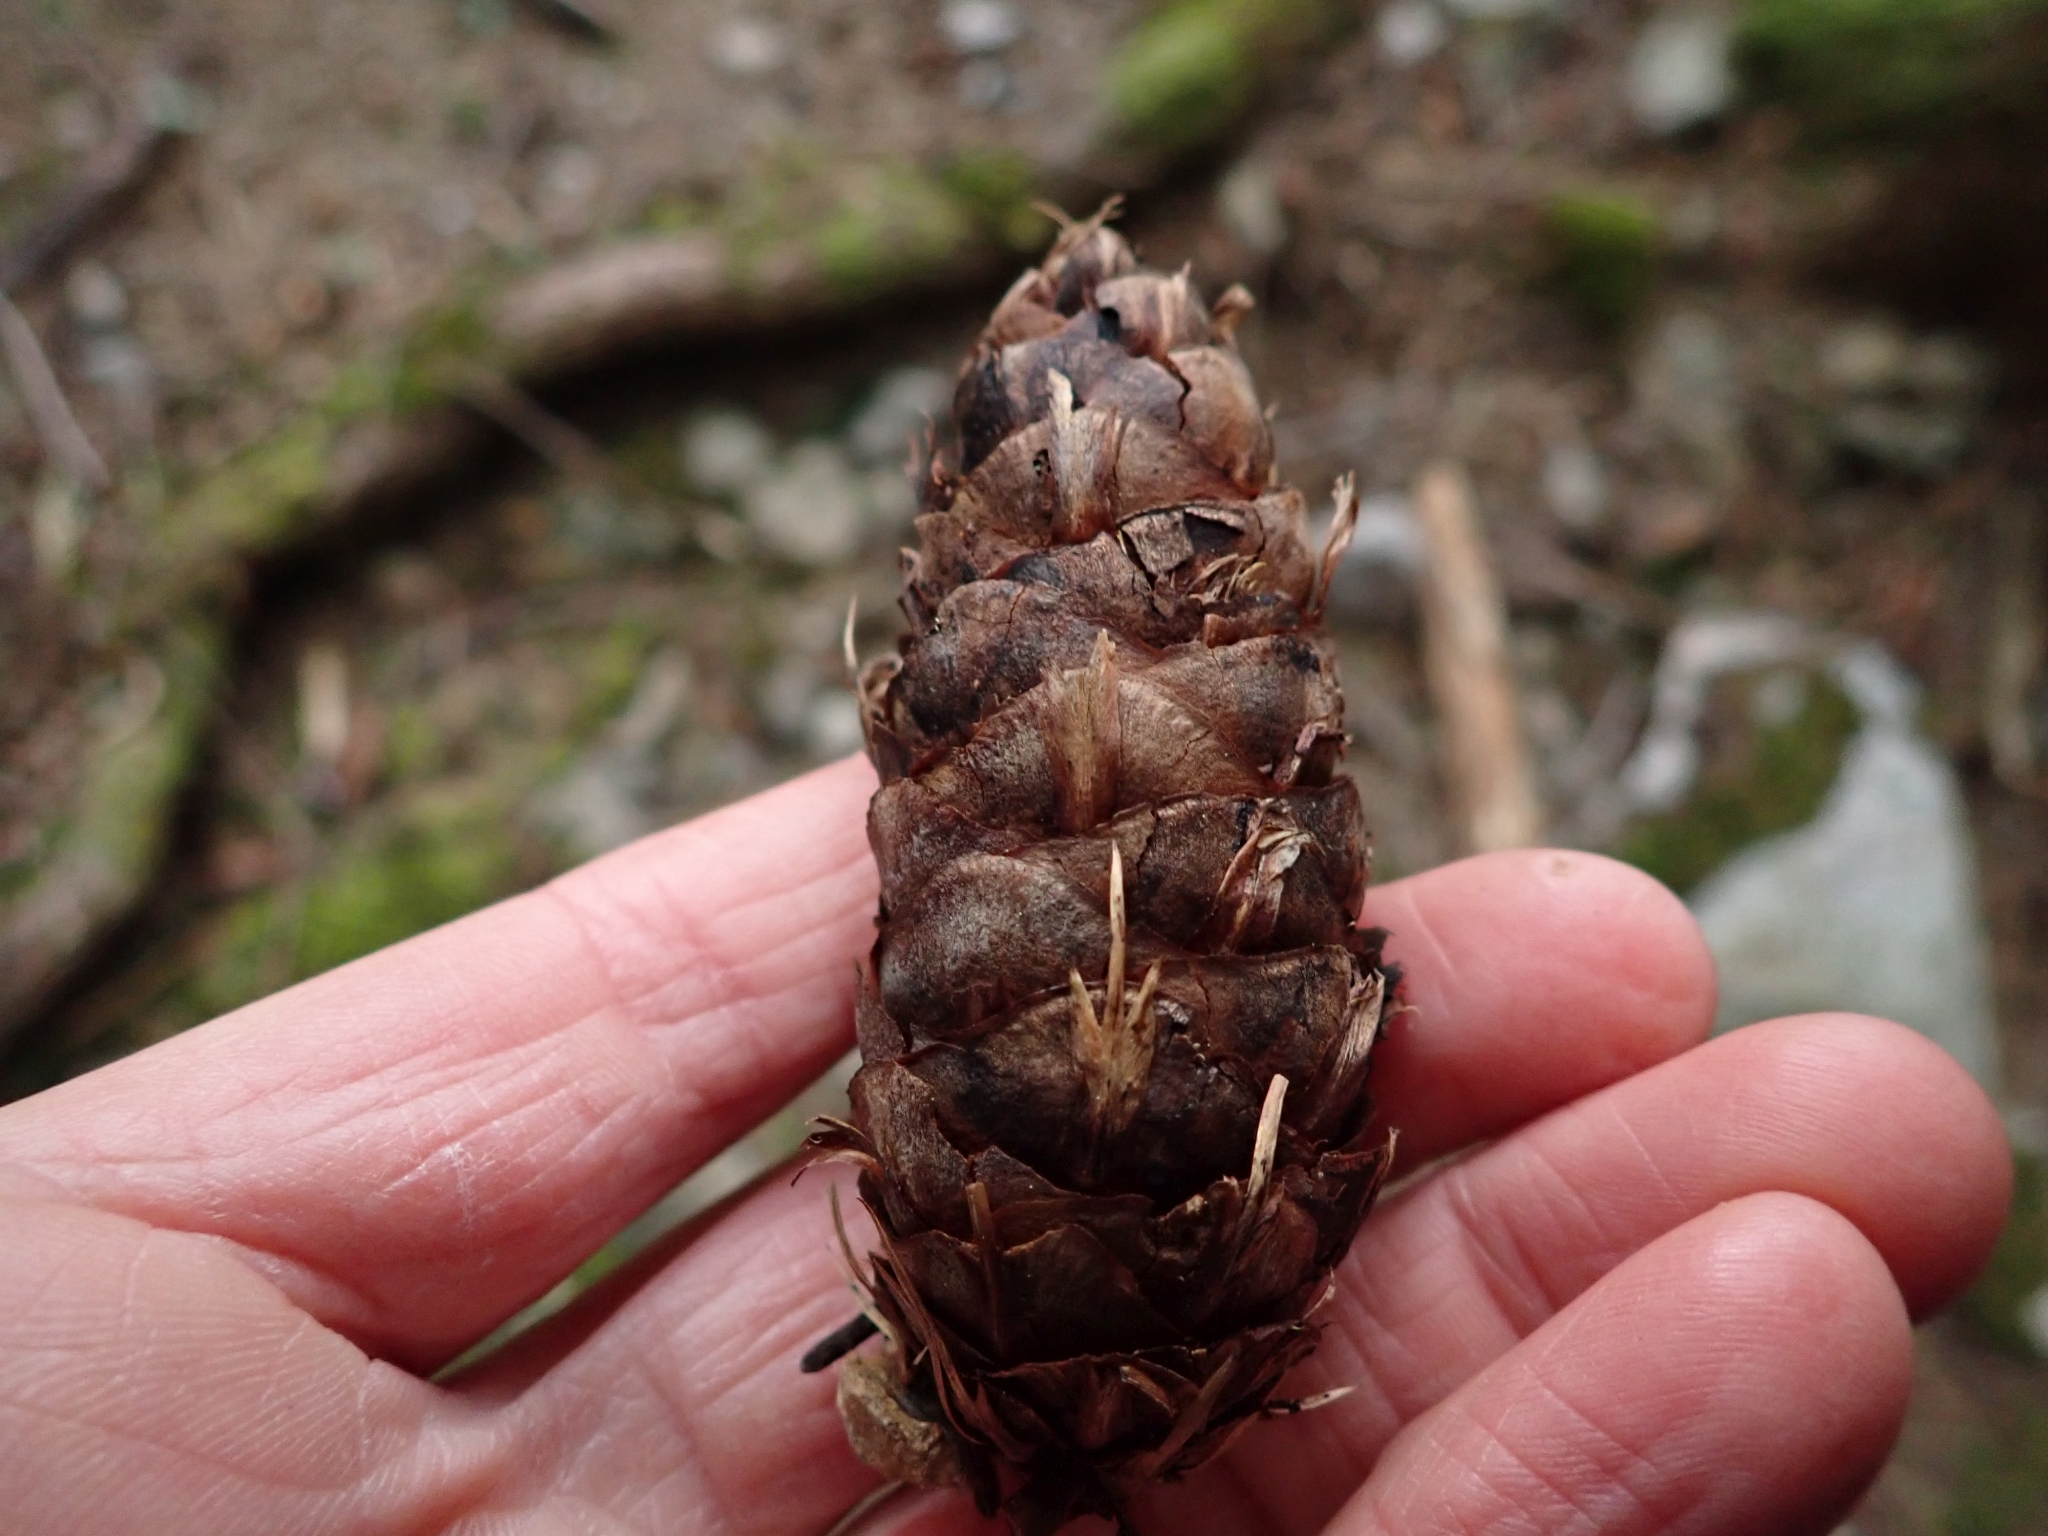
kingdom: Plantae
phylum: Tracheophyta
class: Pinopsida
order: Pinales
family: Pinaceae
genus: Pseudotsuga
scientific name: Pseudotsuga menziesii
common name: Douglas fir
